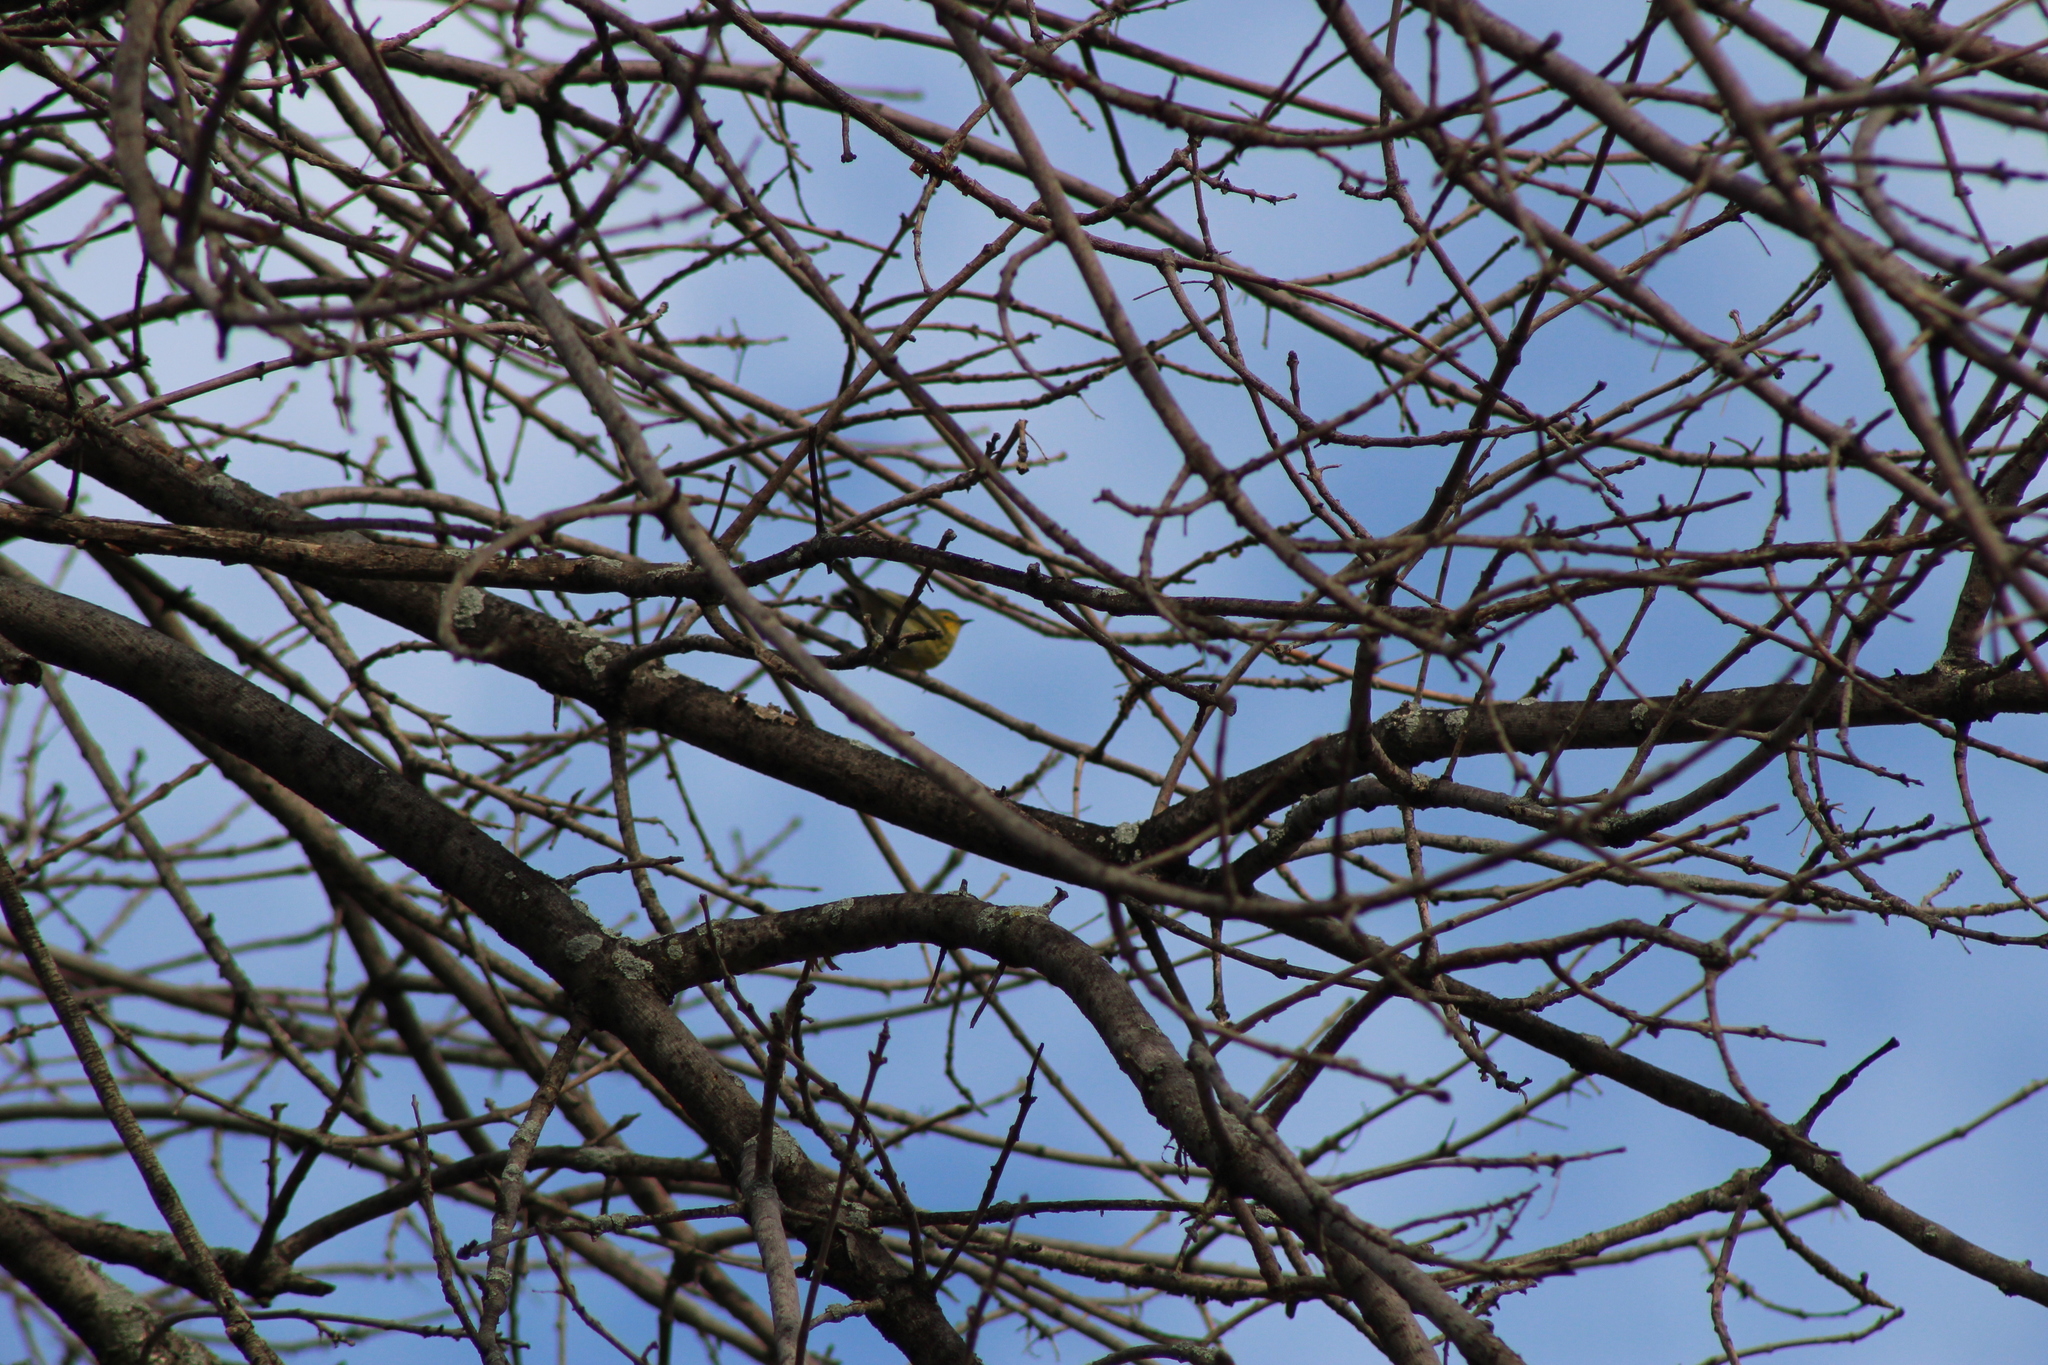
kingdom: Animalia
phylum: Chordata
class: Aves
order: Passeriformes
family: Fringillidae
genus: Spinus
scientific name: Spinus tristis
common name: American goldfinch
